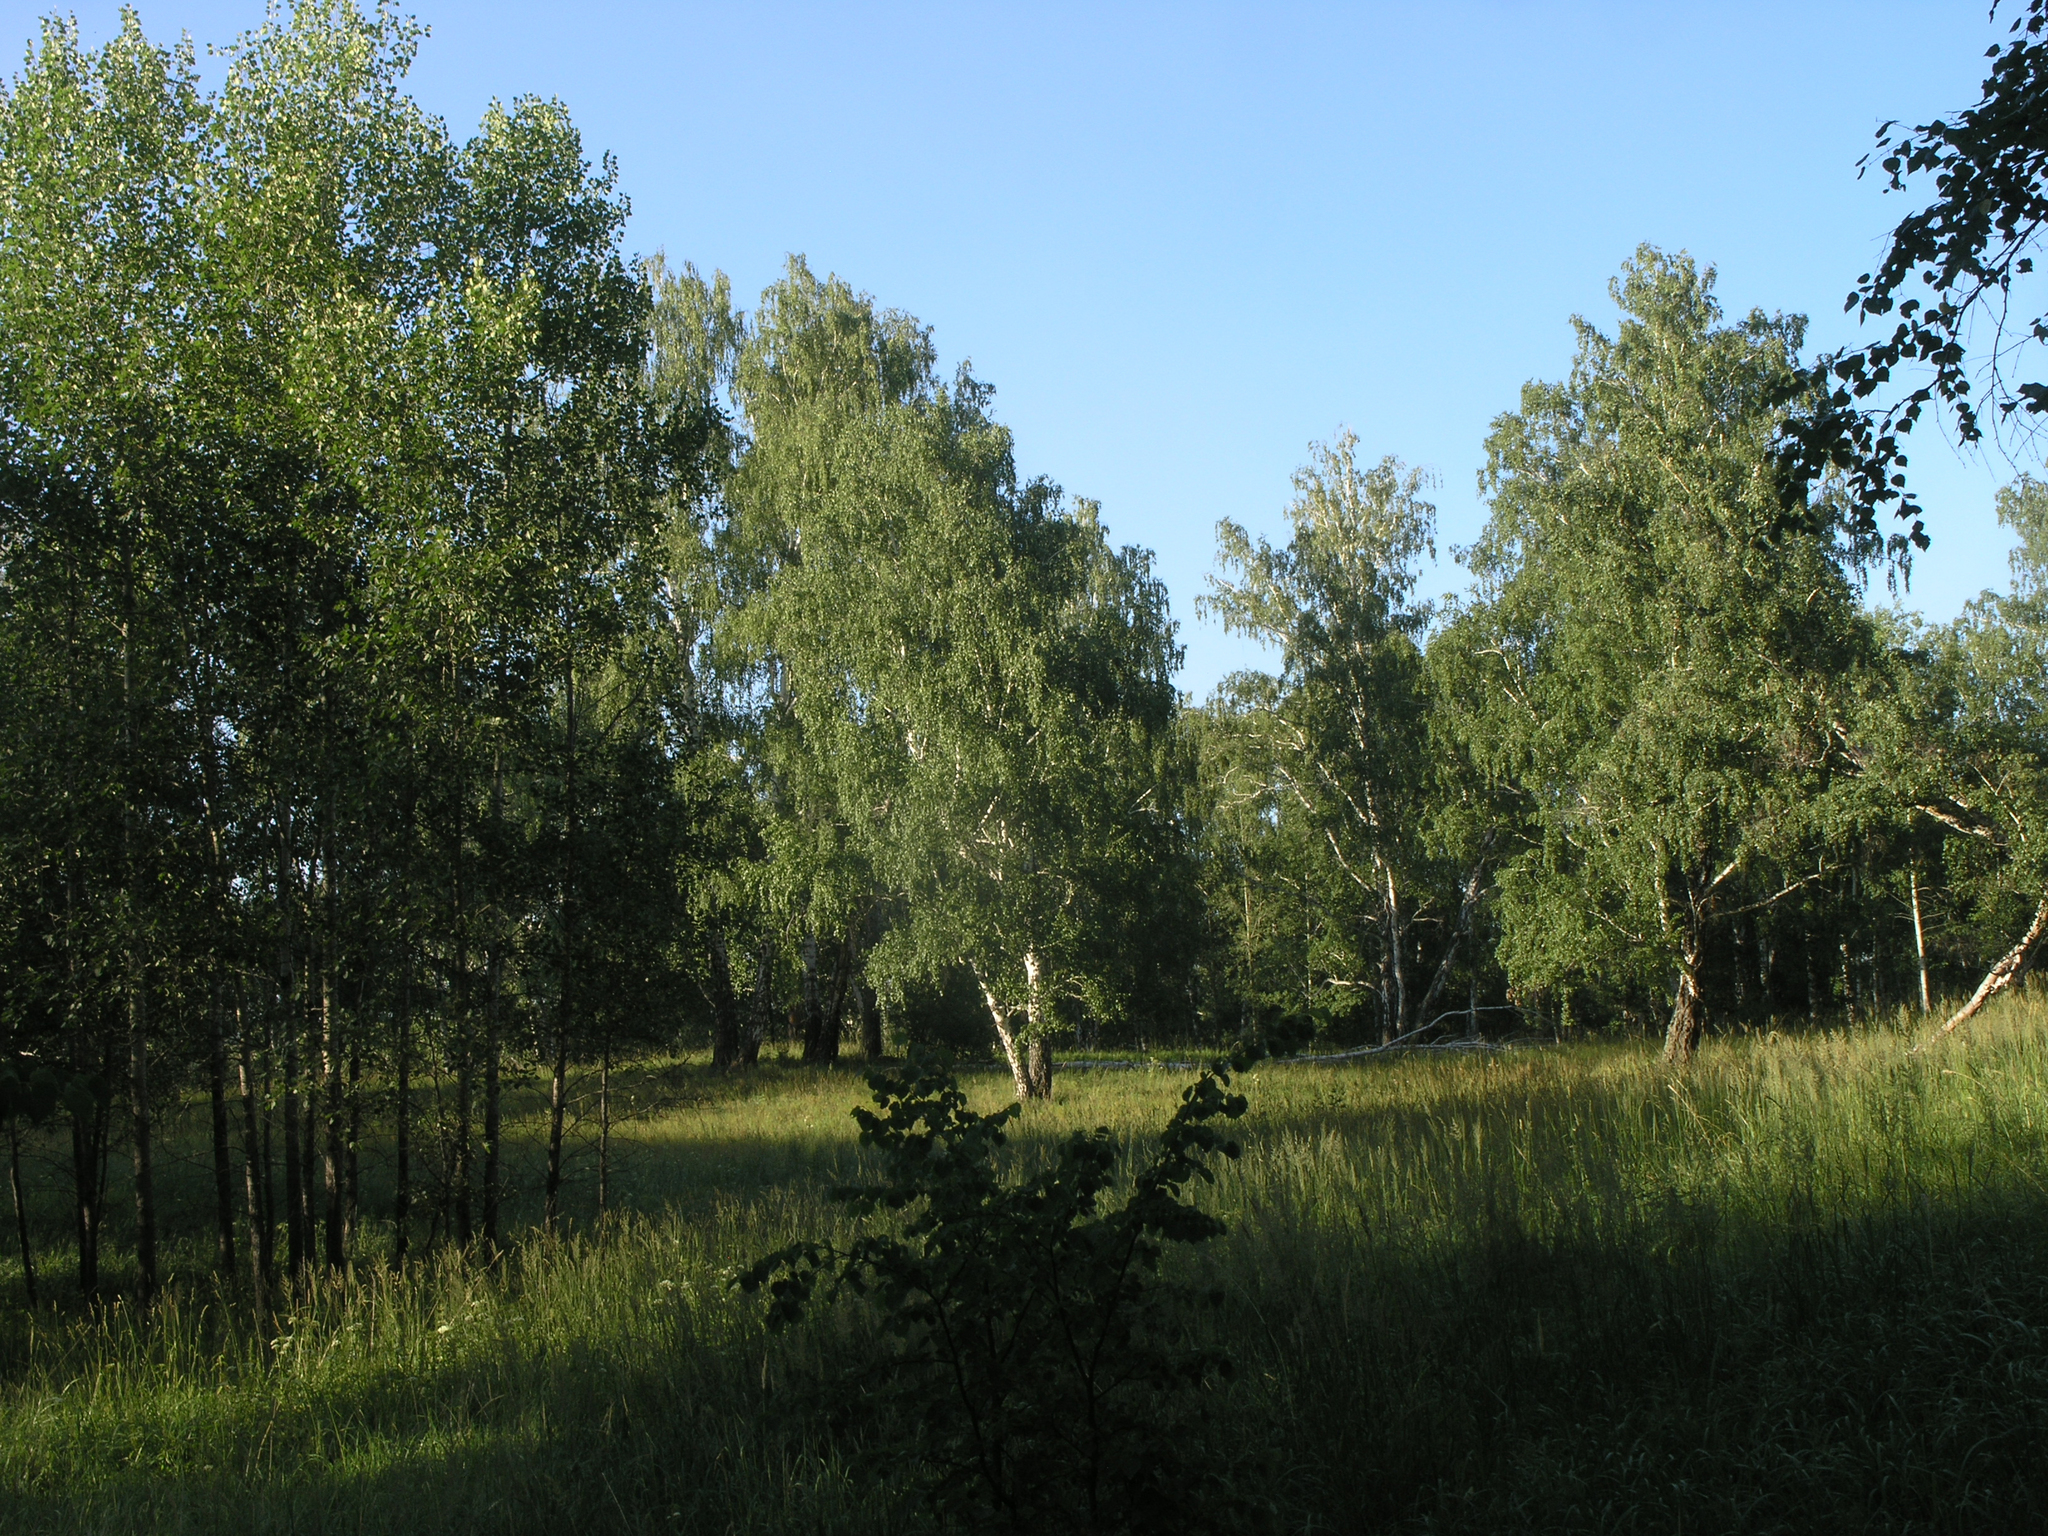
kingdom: Plantae
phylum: Tracheophyta
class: Magnoliopsida
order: Malpighiales
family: Salicaceae
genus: Populus
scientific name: Populus tremula
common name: European aspen
